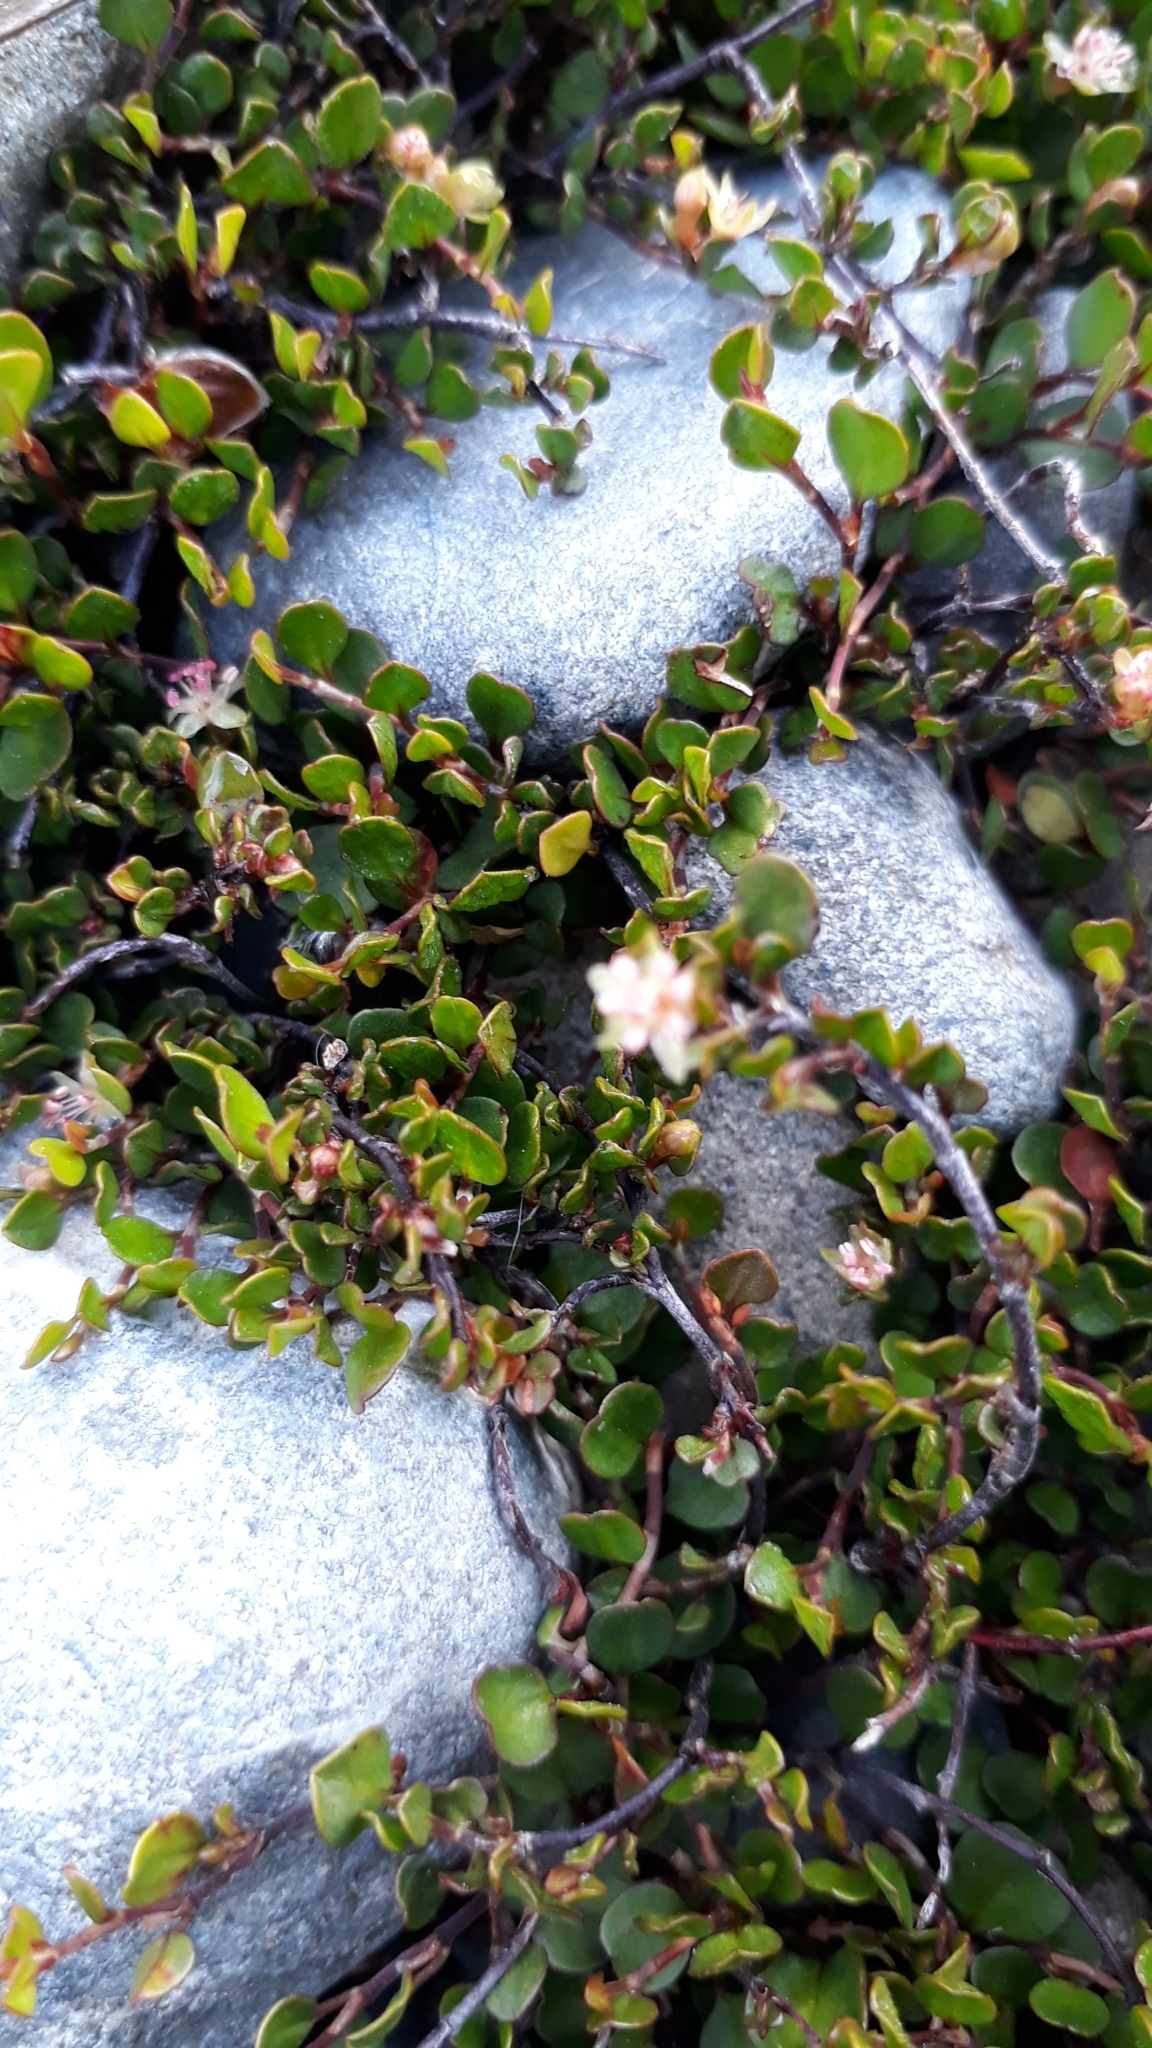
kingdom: Plantae
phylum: Tracheophyta
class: Magnoliopsida
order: Caryophyllales
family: Polygonaceae
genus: Muehlenbeckia
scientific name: Muehlenbeckia axillaris
